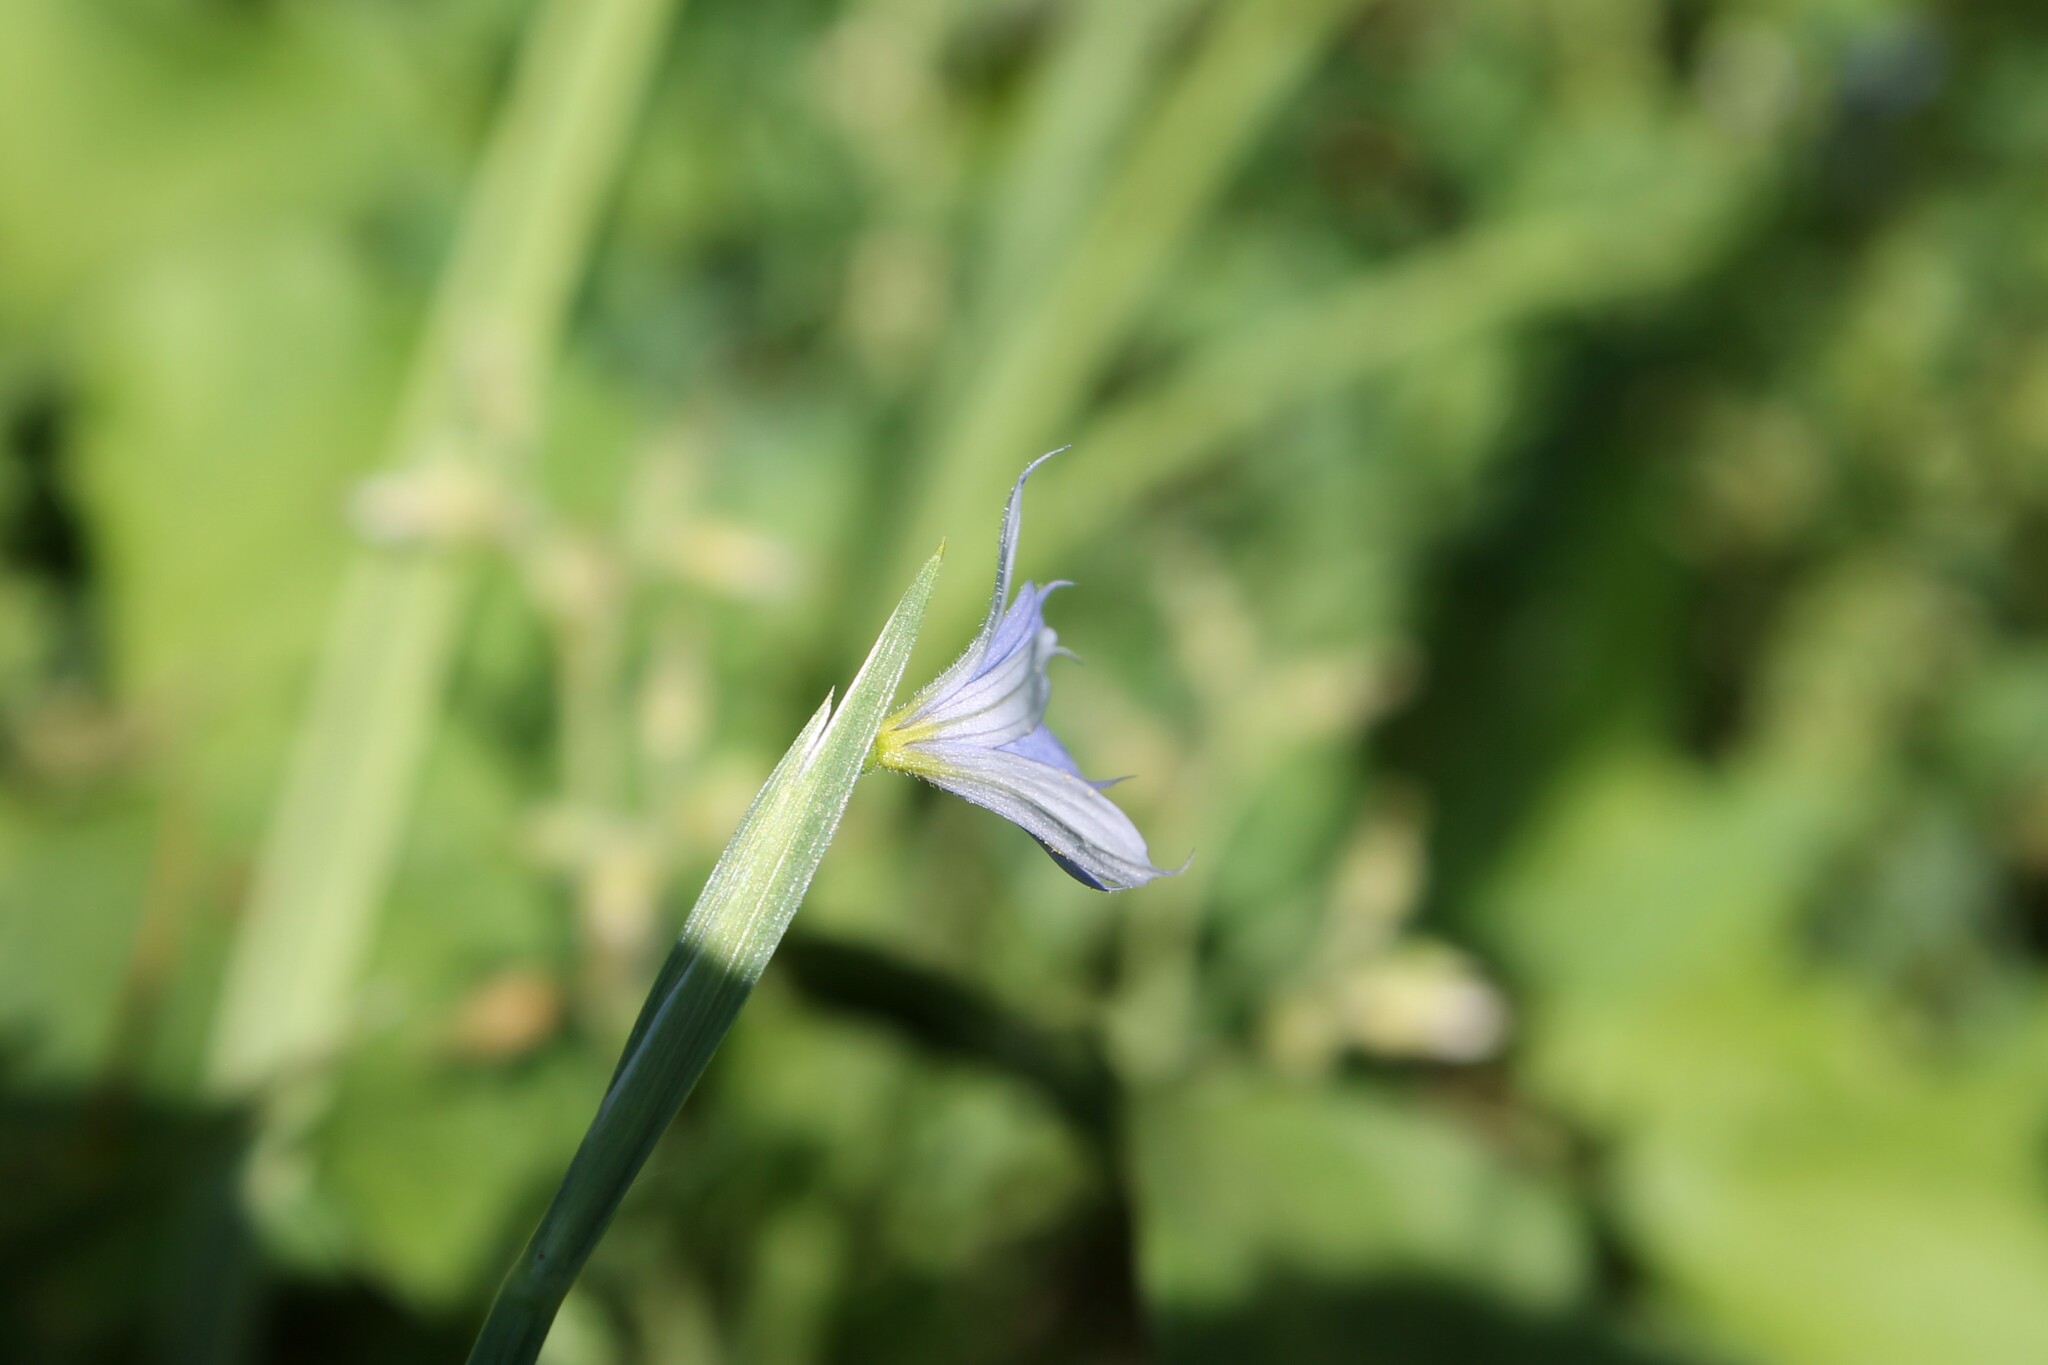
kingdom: Plantae
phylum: Tracheophyta
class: Liliopsida
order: Asparagales
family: Iridaceae
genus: Sisyrinchium
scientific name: Sisyrinchium angustifolium
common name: Narrow-leaf blue-eyed-grass
